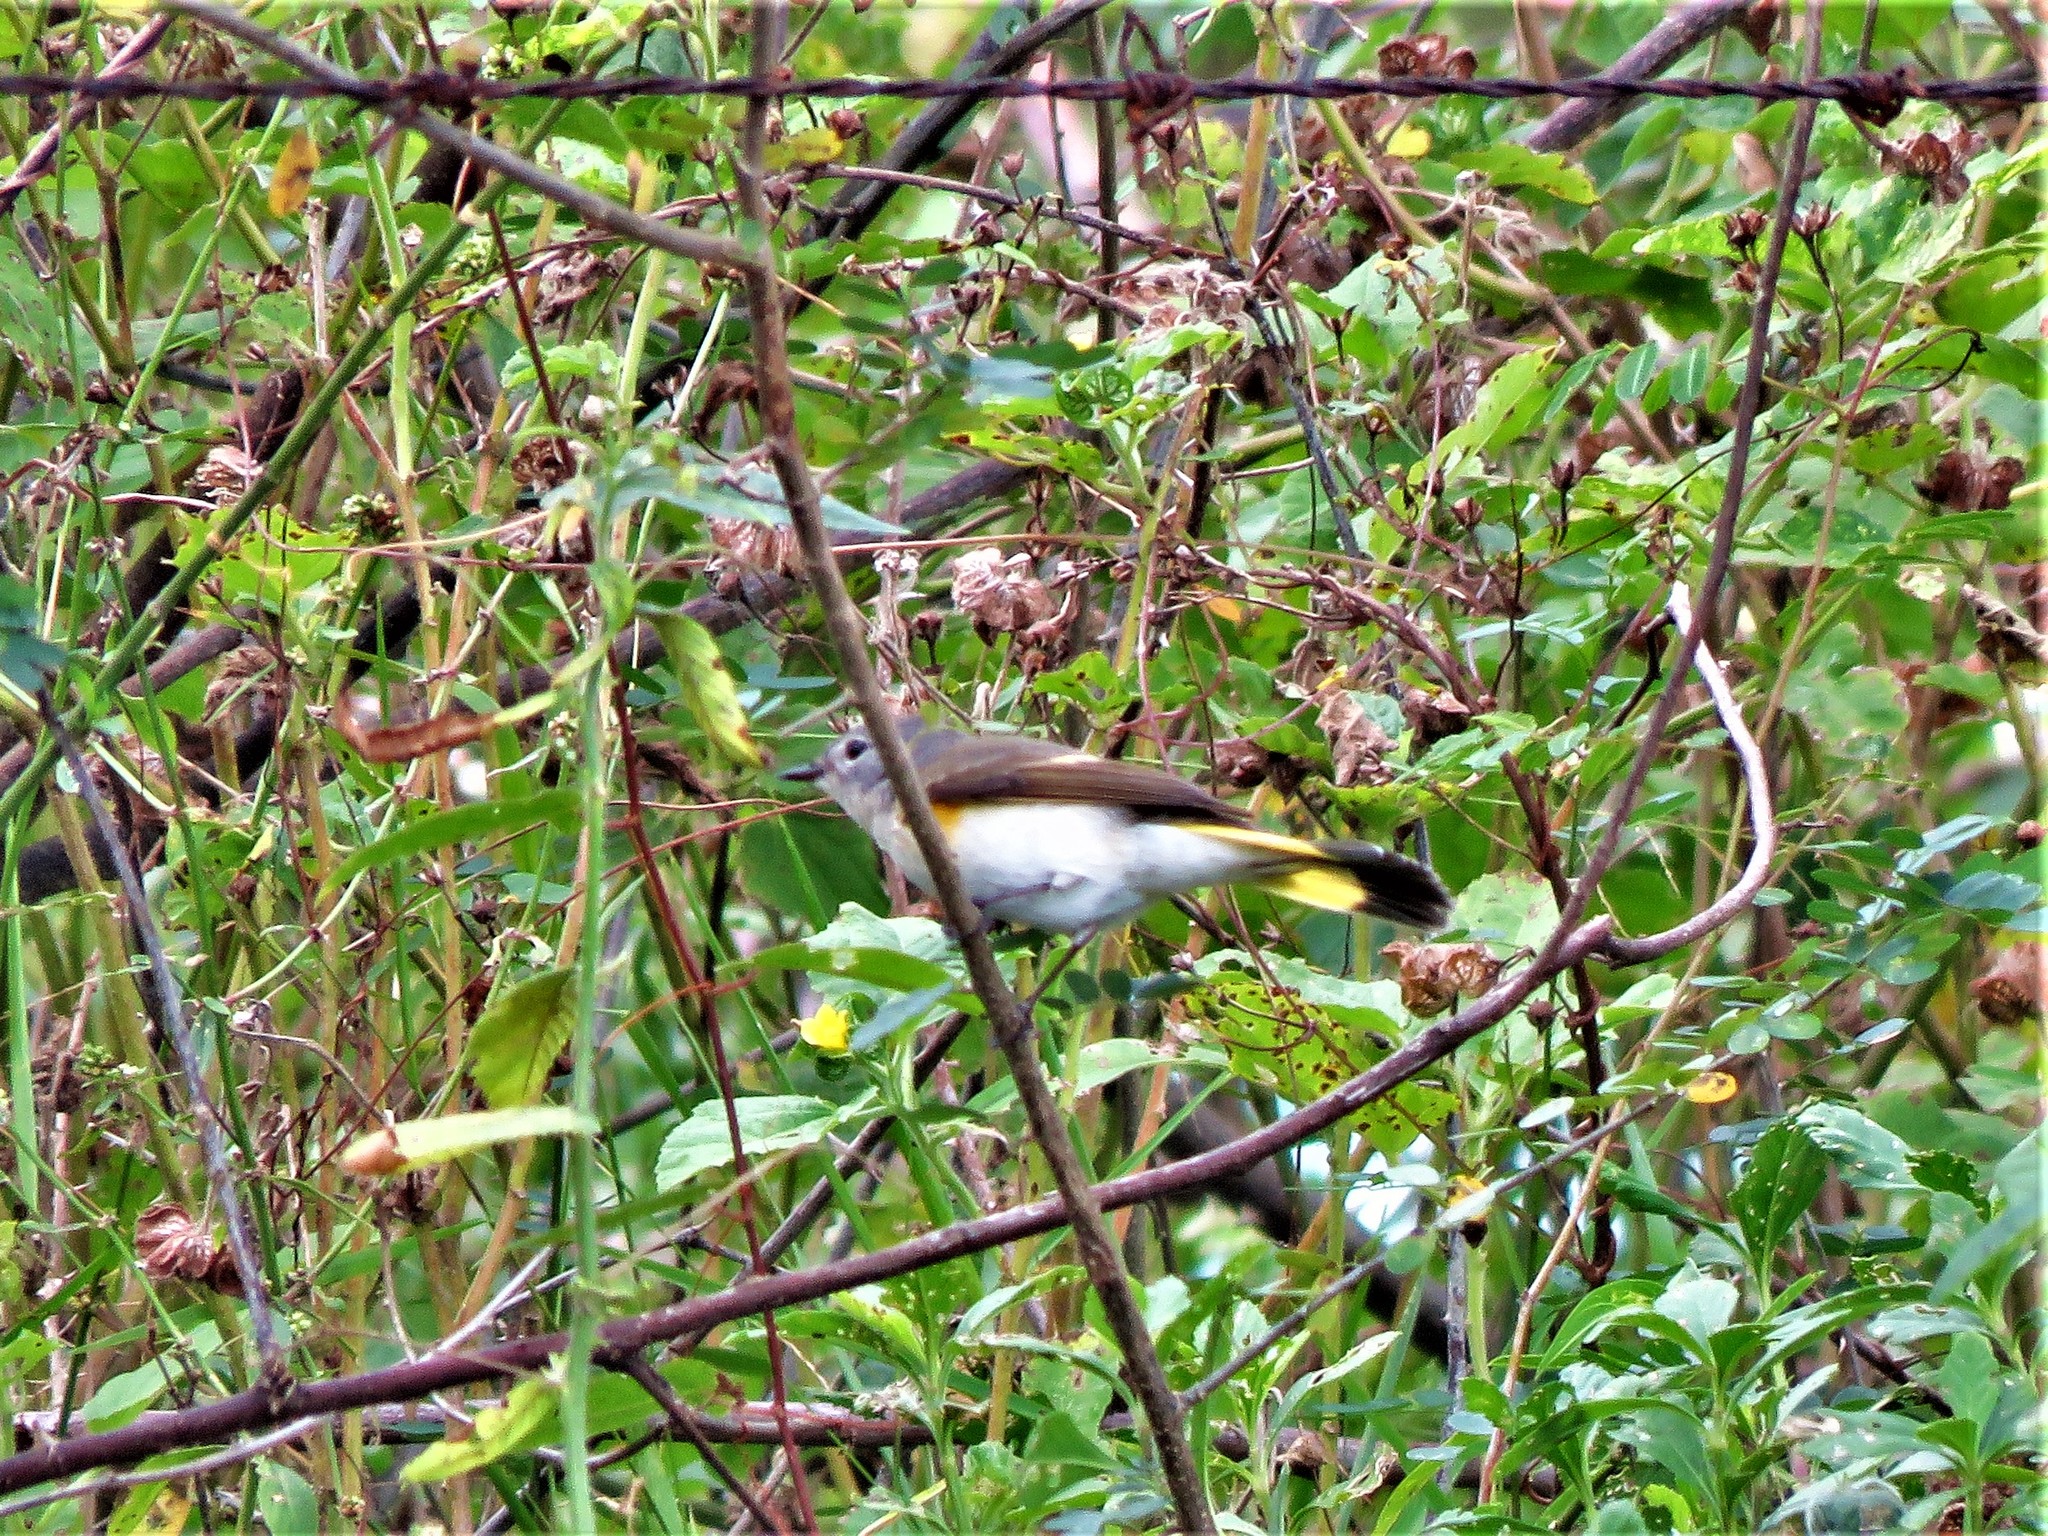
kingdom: Animalia
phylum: Chordata
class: Aves
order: Passeriformes
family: Parulidae
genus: Setophaga
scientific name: Setophaga ruticilla
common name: American redstart
